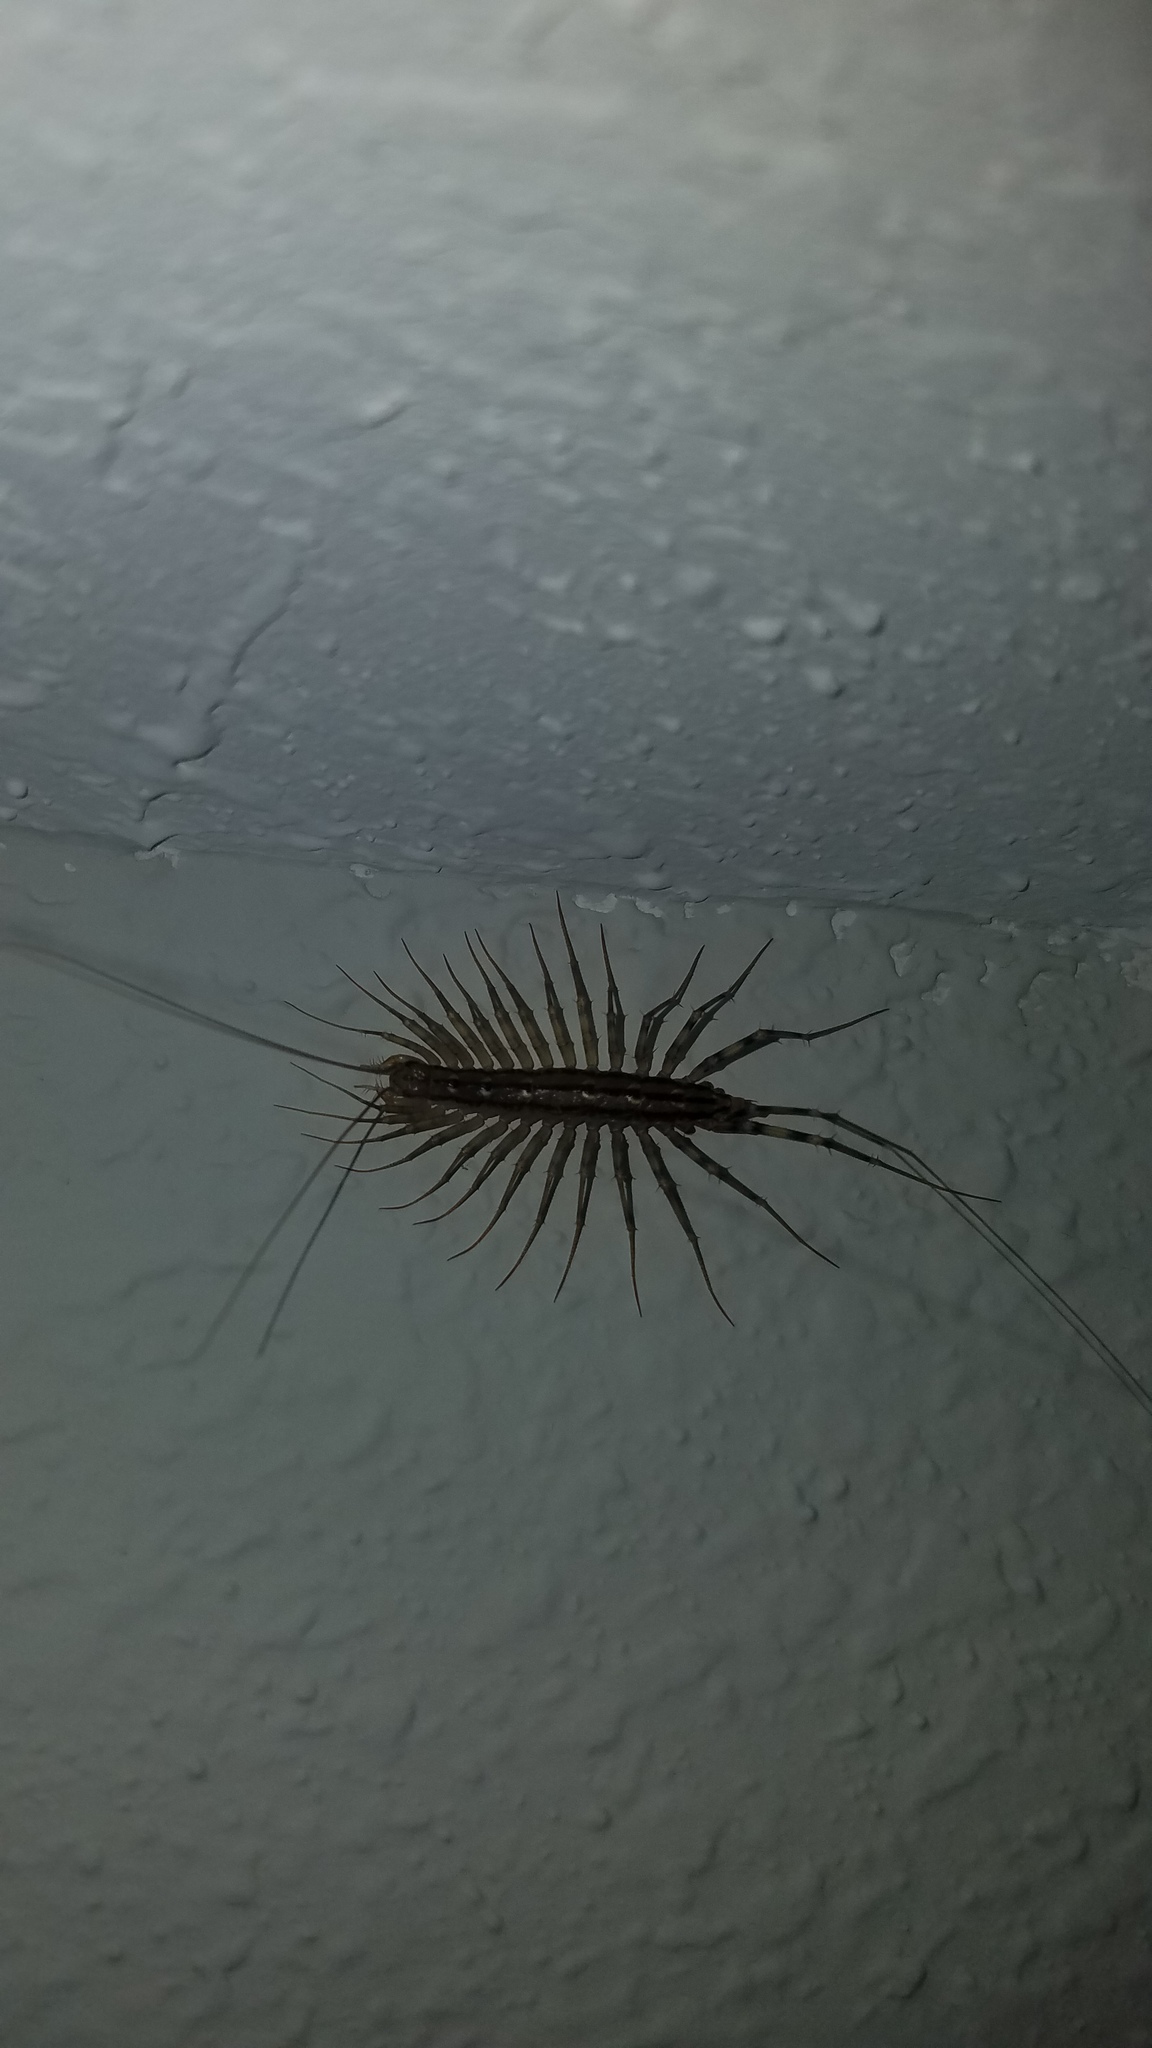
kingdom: Animalia
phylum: Arthropoda
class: Chilopoda
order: Scutigeromorpha
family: Scutigeridae
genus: Scutigera
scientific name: Scutigera coleoptrata
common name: House centipede
